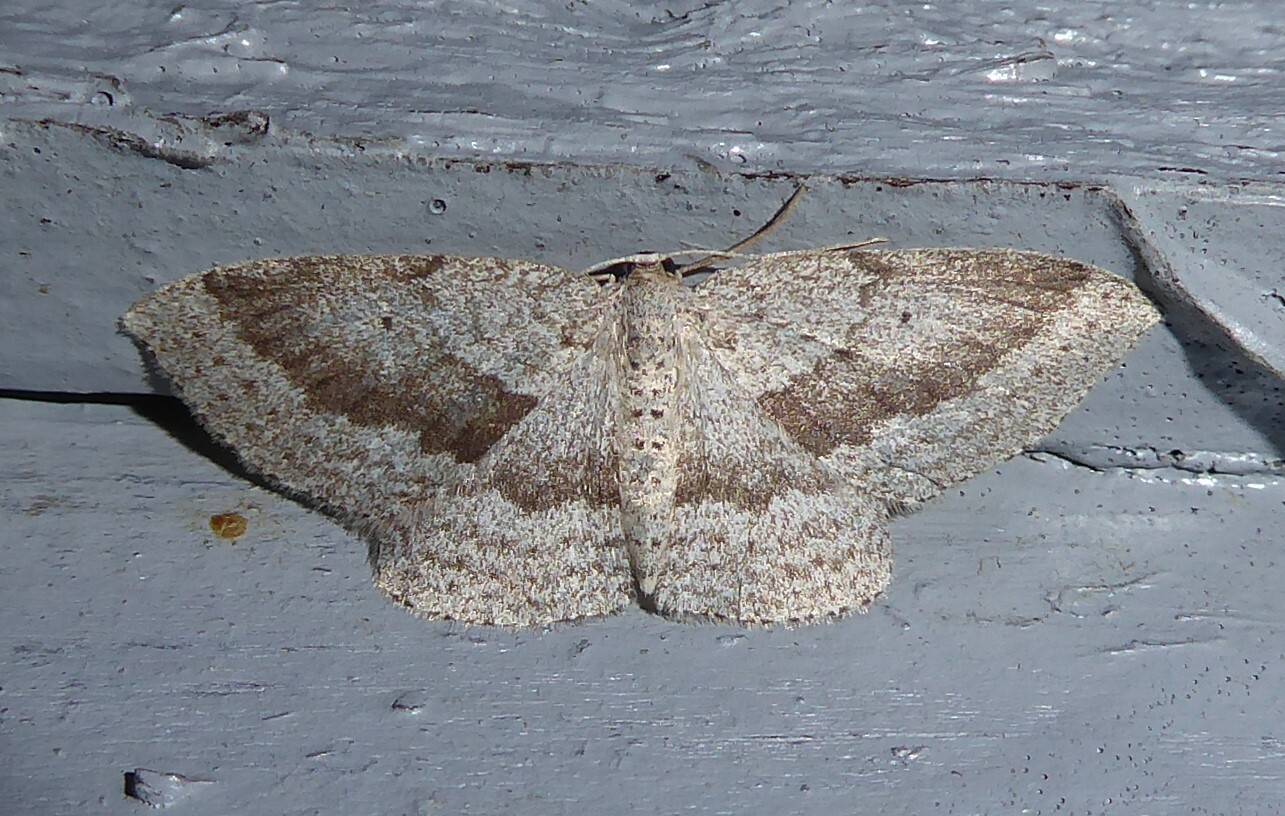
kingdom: Animalia
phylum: Arthropoda
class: Insecta
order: Lepidoptera
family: Geometridae
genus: Poecilasthena
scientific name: Poecilasthena schistaria
